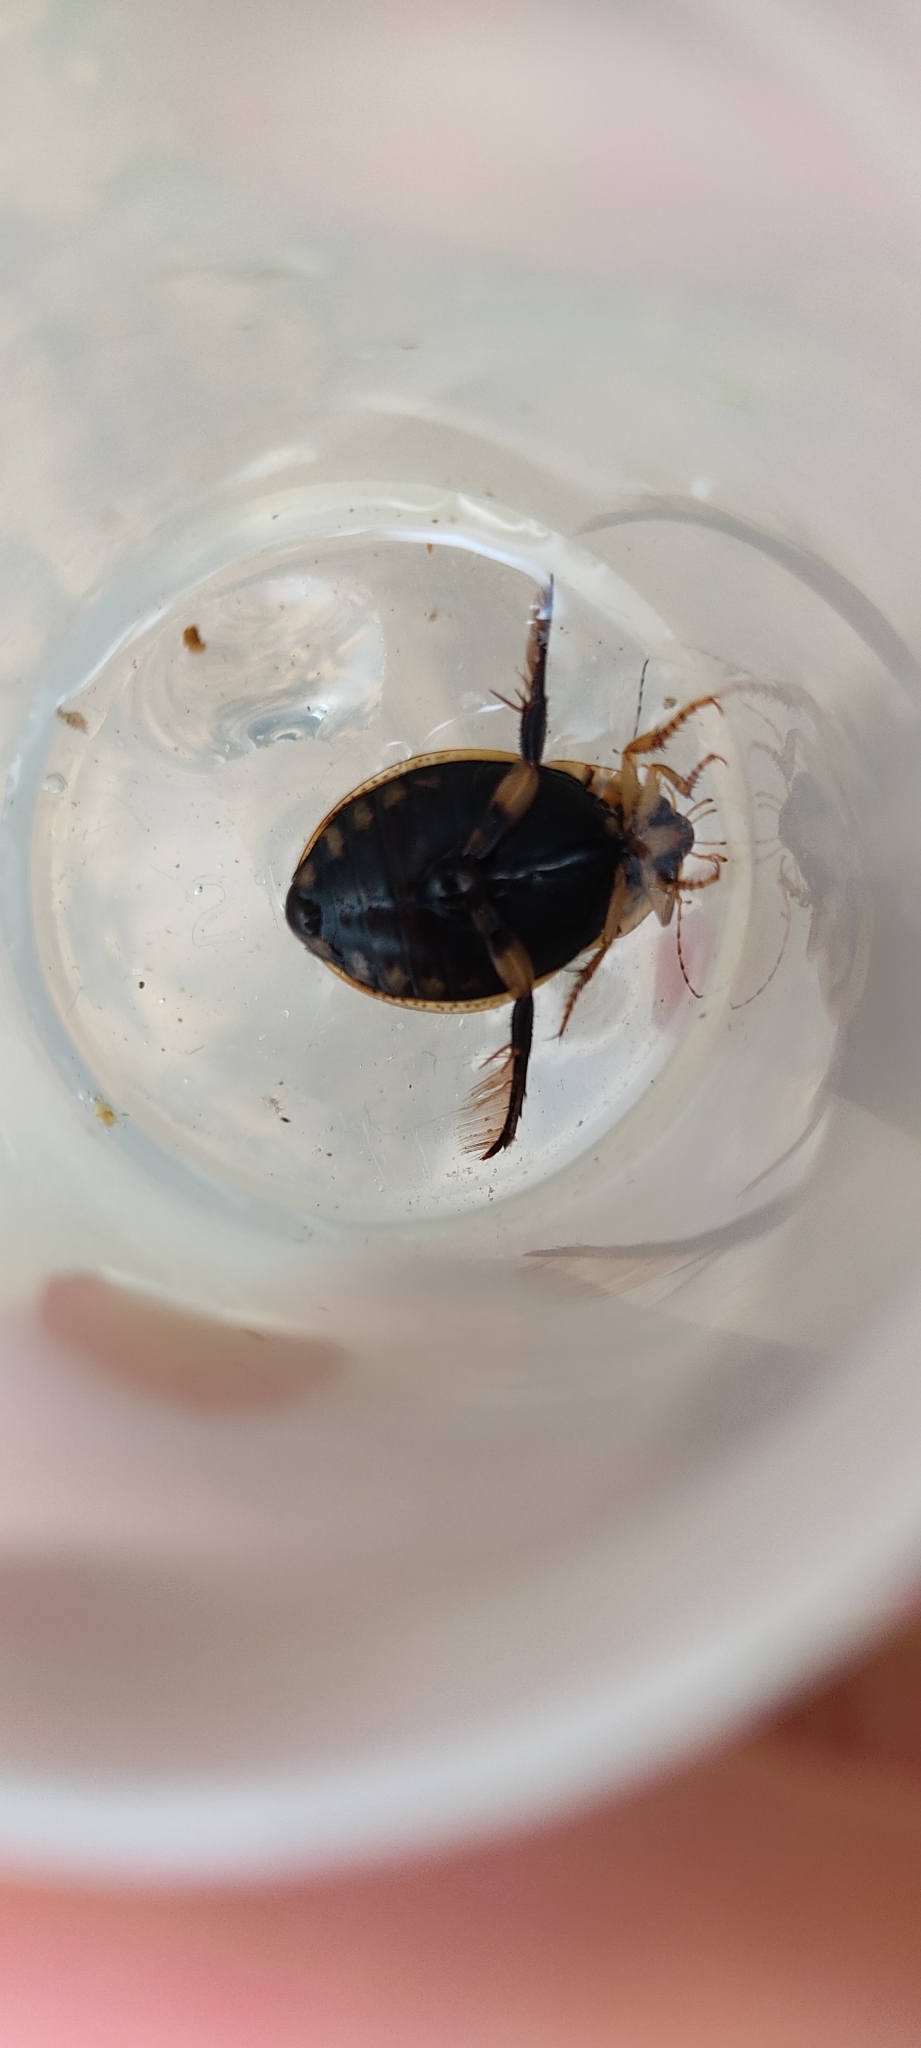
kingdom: Animalia
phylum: Arthropoda
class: Insecta
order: Coleoptera
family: Dytiscidae
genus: Acilius
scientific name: Acilius sulcatus
